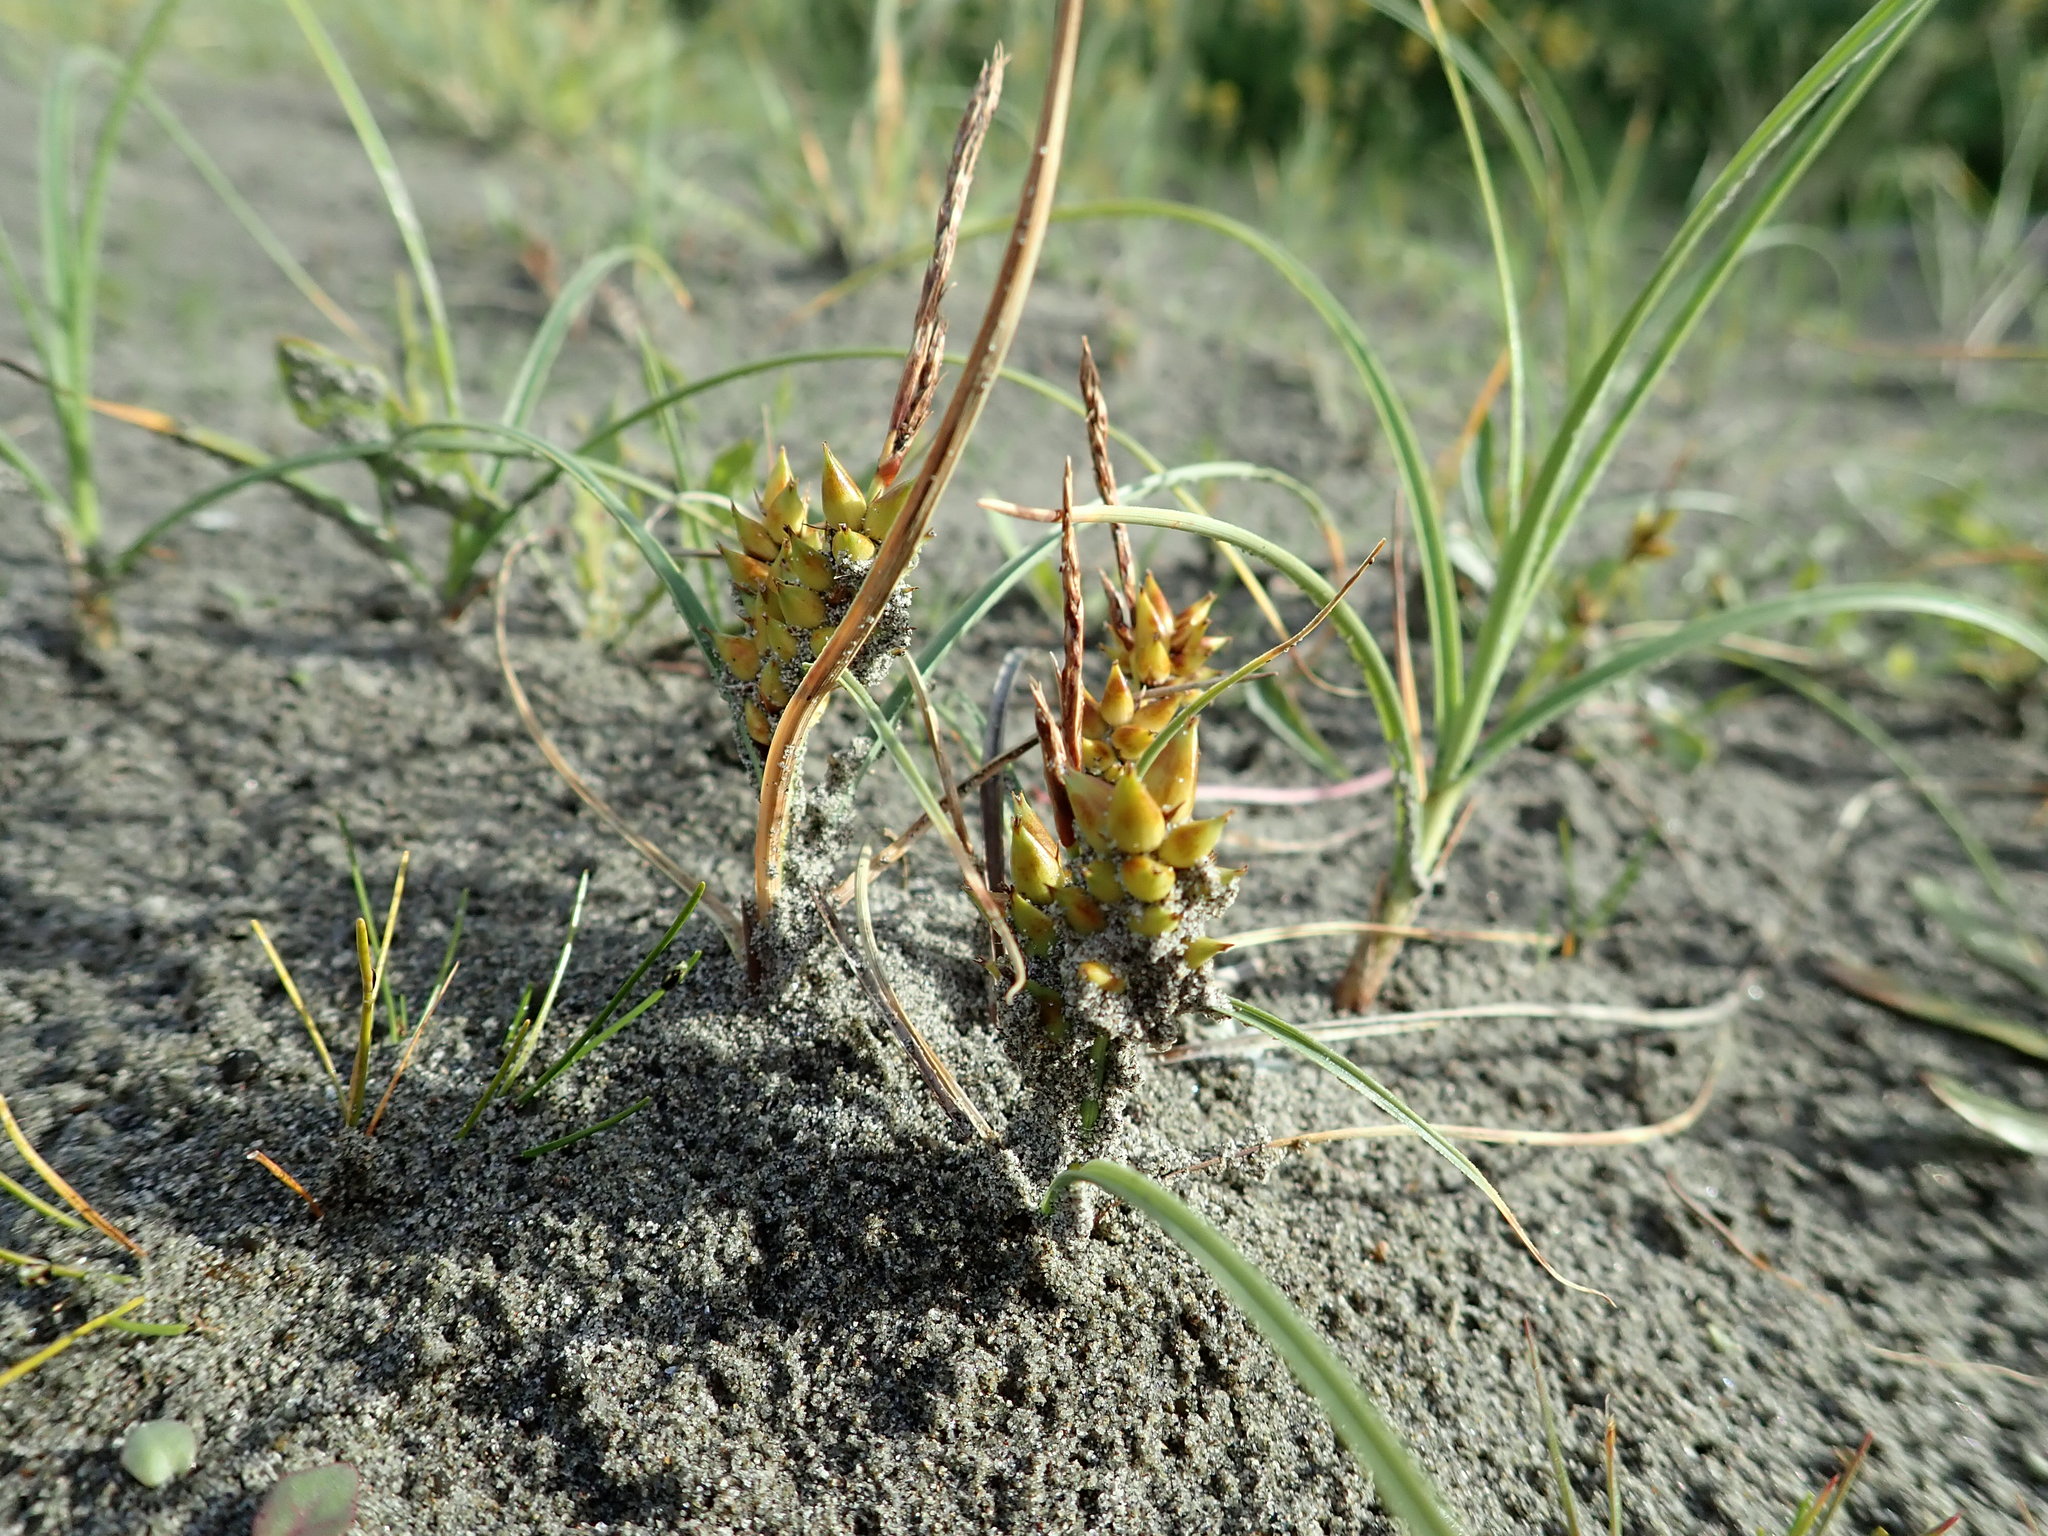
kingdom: Plantae
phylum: Tracheophyta
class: Liliopsida
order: Poales
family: Cyperaceae
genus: Carex
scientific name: Carex pumila
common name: Dwarf sedge
